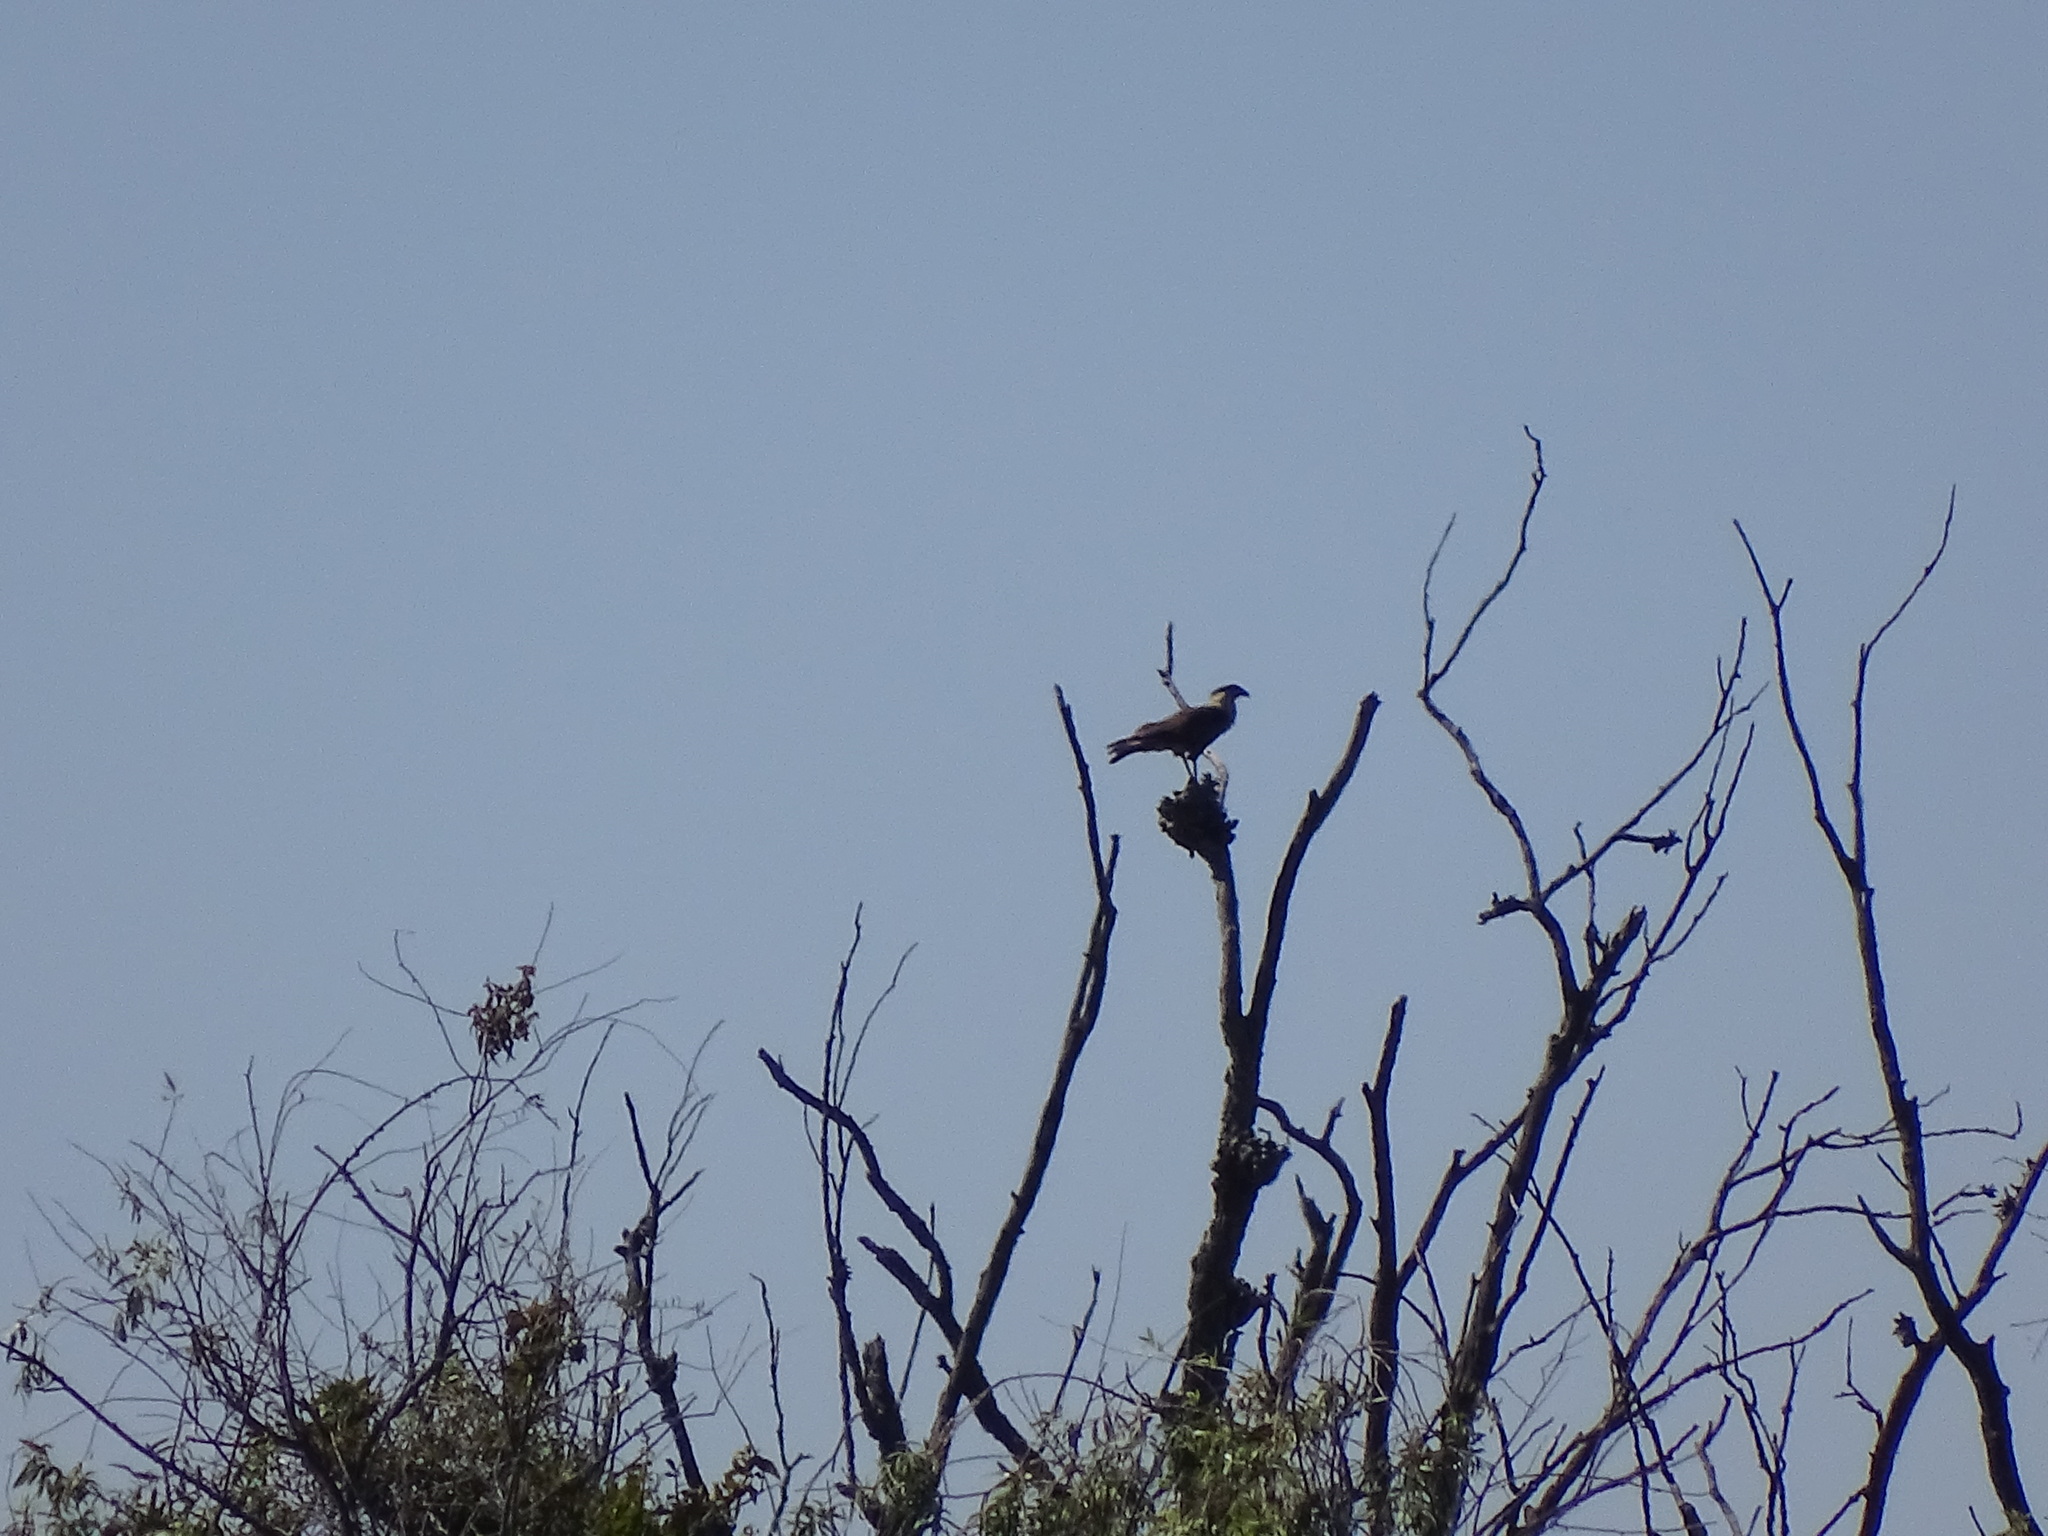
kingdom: Animalia
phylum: Chordata
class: Aves
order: Falconiformes
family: Falconidae
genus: Caracara
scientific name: Caracara plancus
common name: Southern caracara
